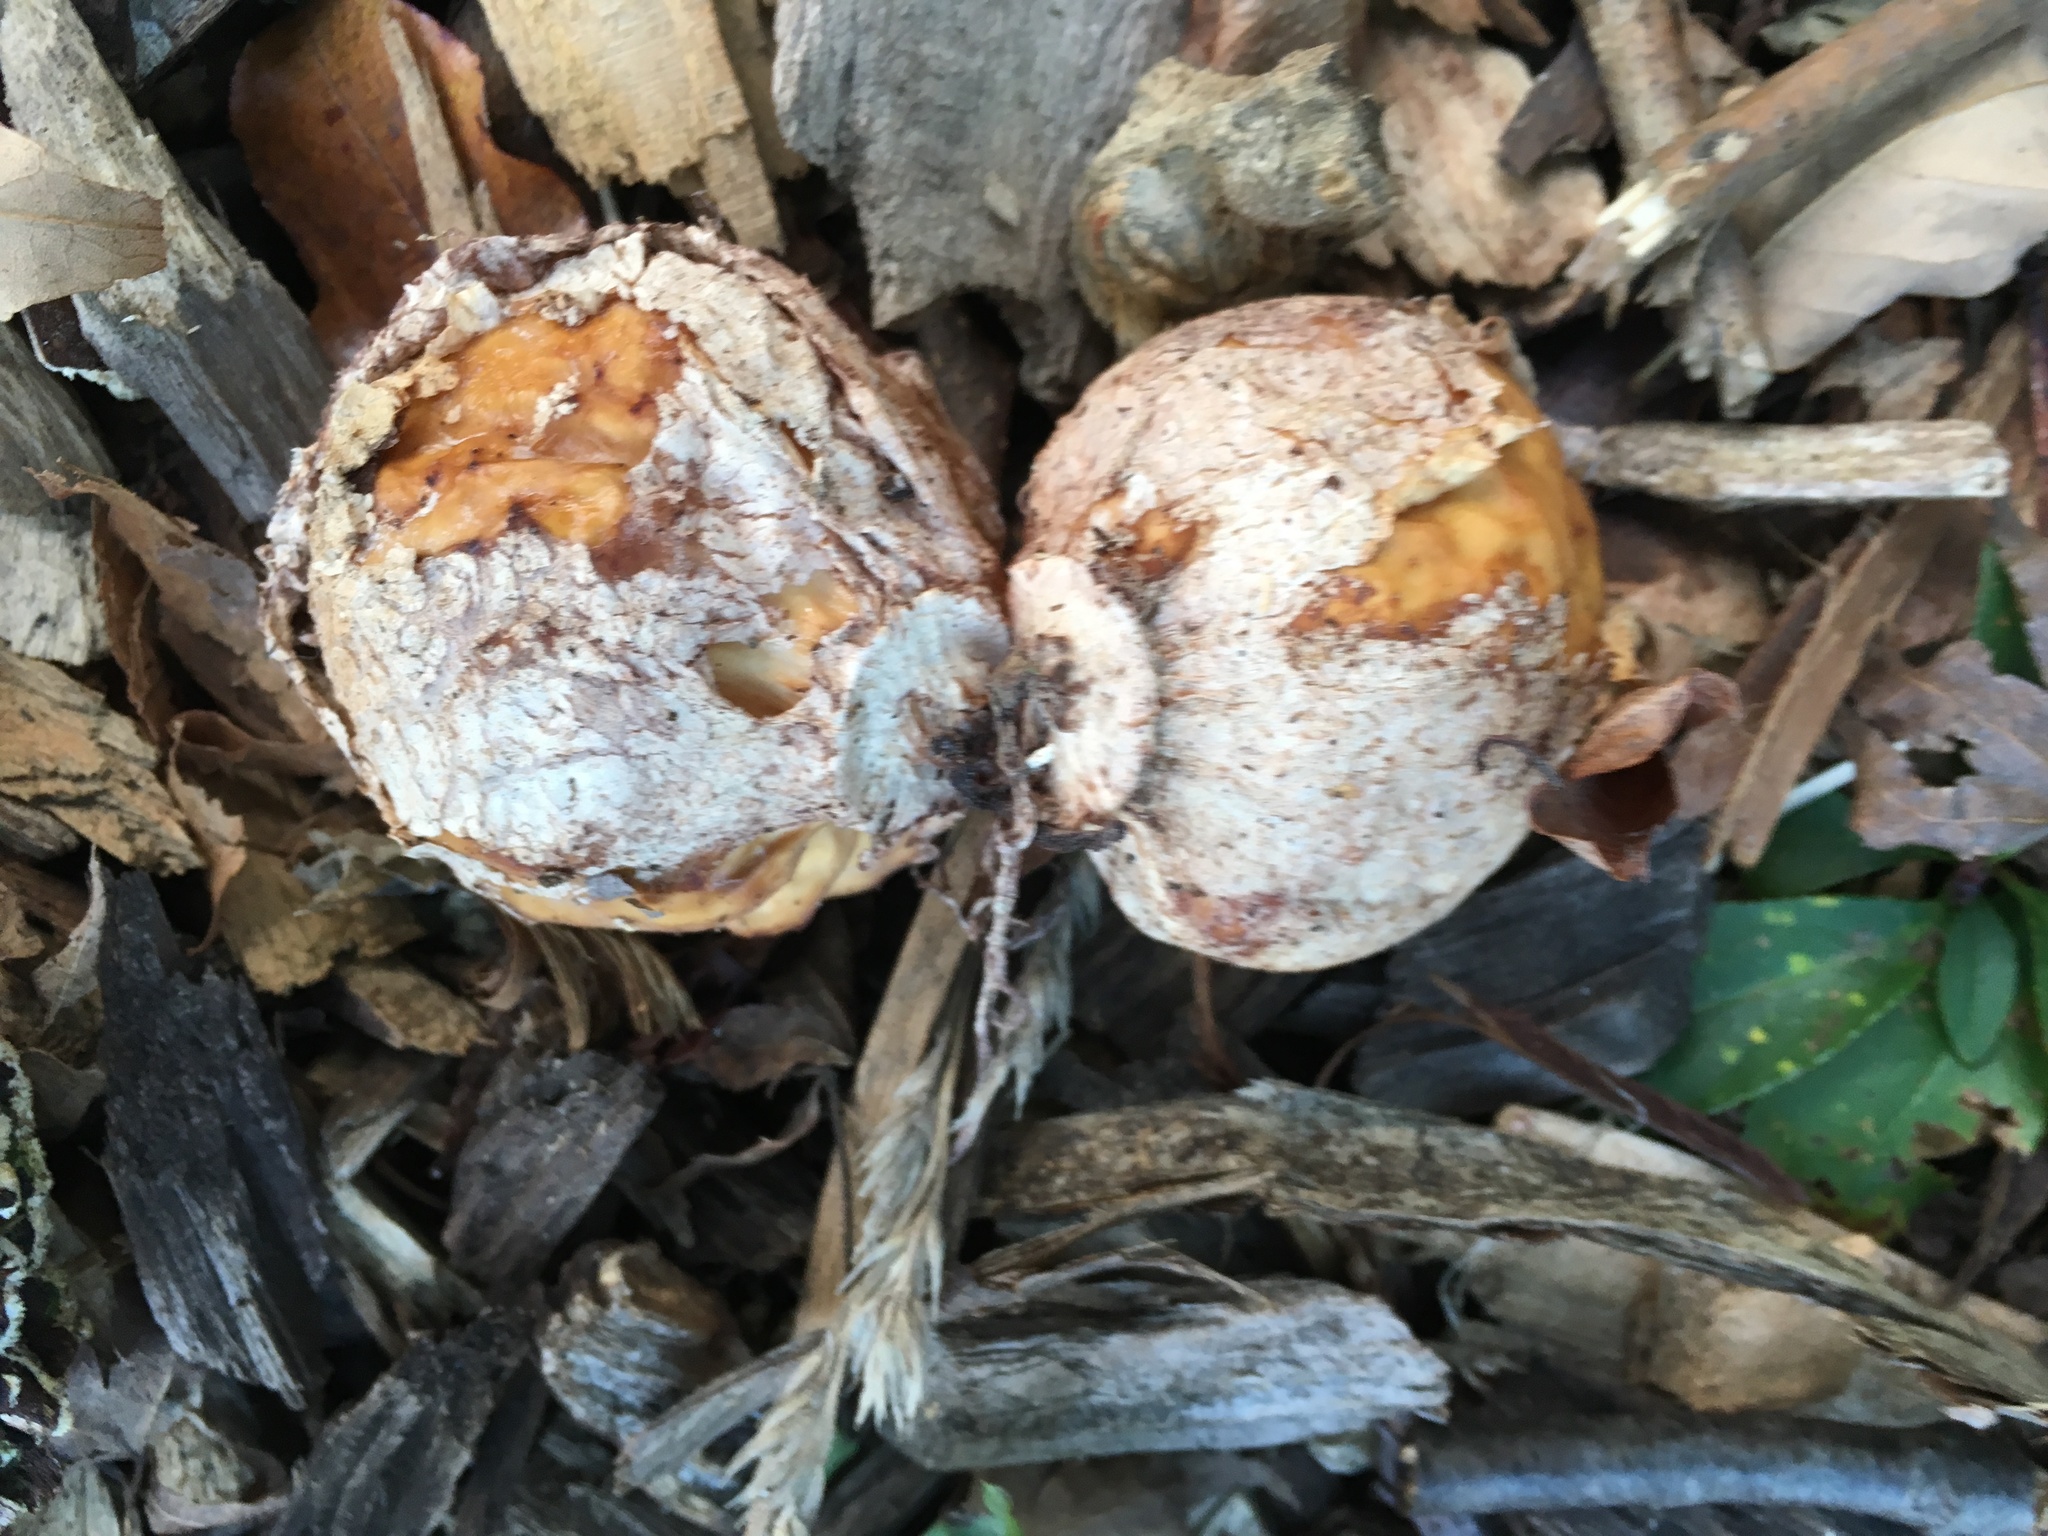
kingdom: Fungi
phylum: Basidiomycota
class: Agaricomycetes
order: Phallales
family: Phallaceae
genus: Phallus
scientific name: Phallus ravenelii
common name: Ravenel's stinkhorn
